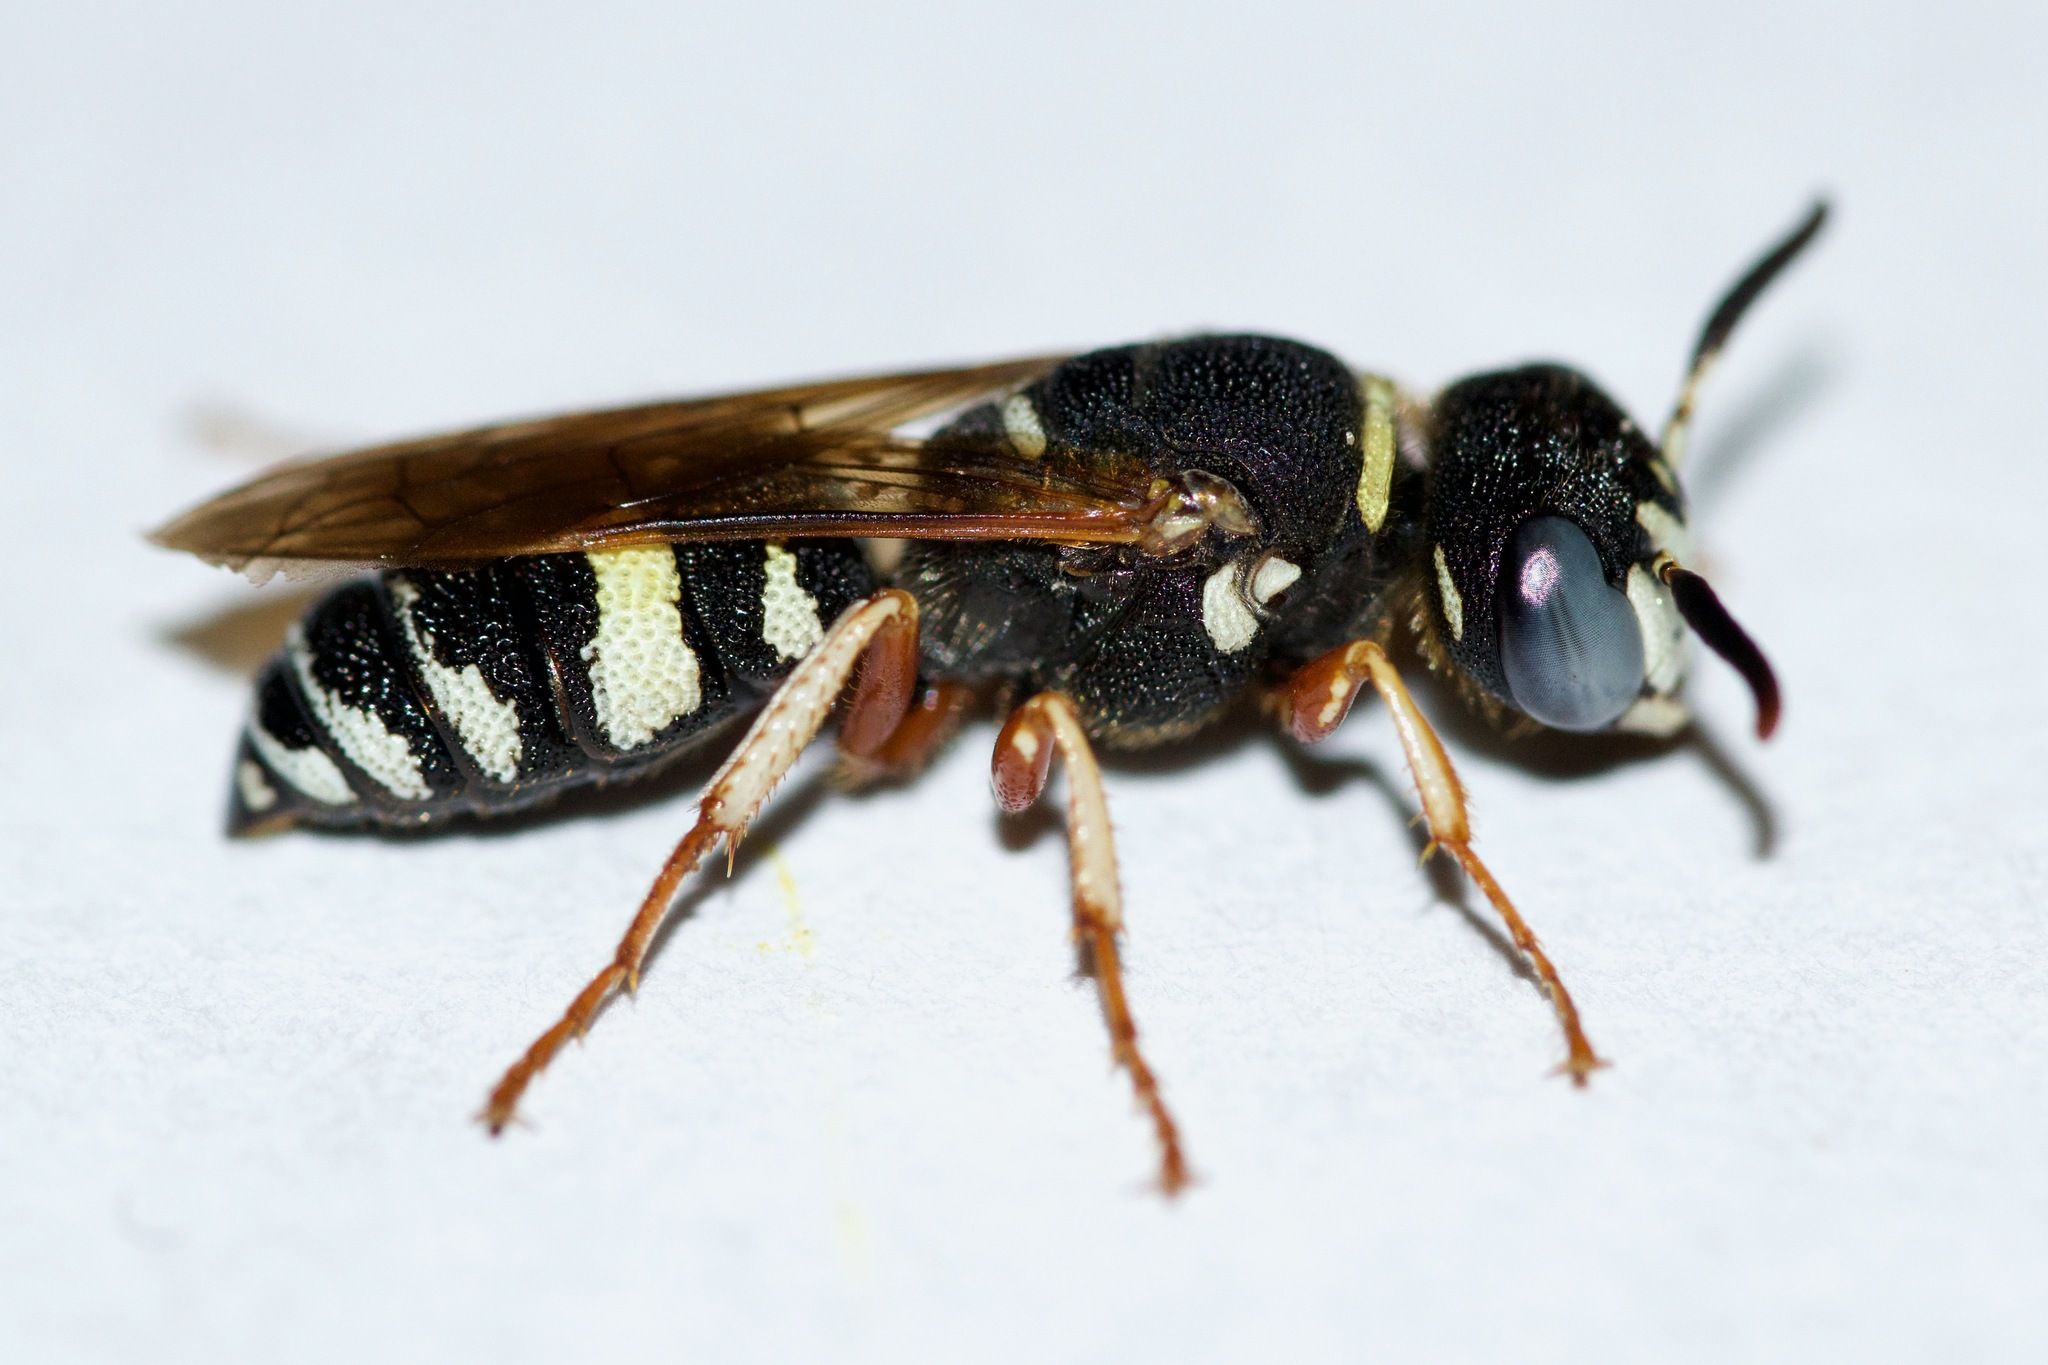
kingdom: Animalia
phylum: Arthropoda
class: Insecta
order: Hymenoptera
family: Crabronidae
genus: Philanthus
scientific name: Philanthus ventilabris
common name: Bee-killer wasp
